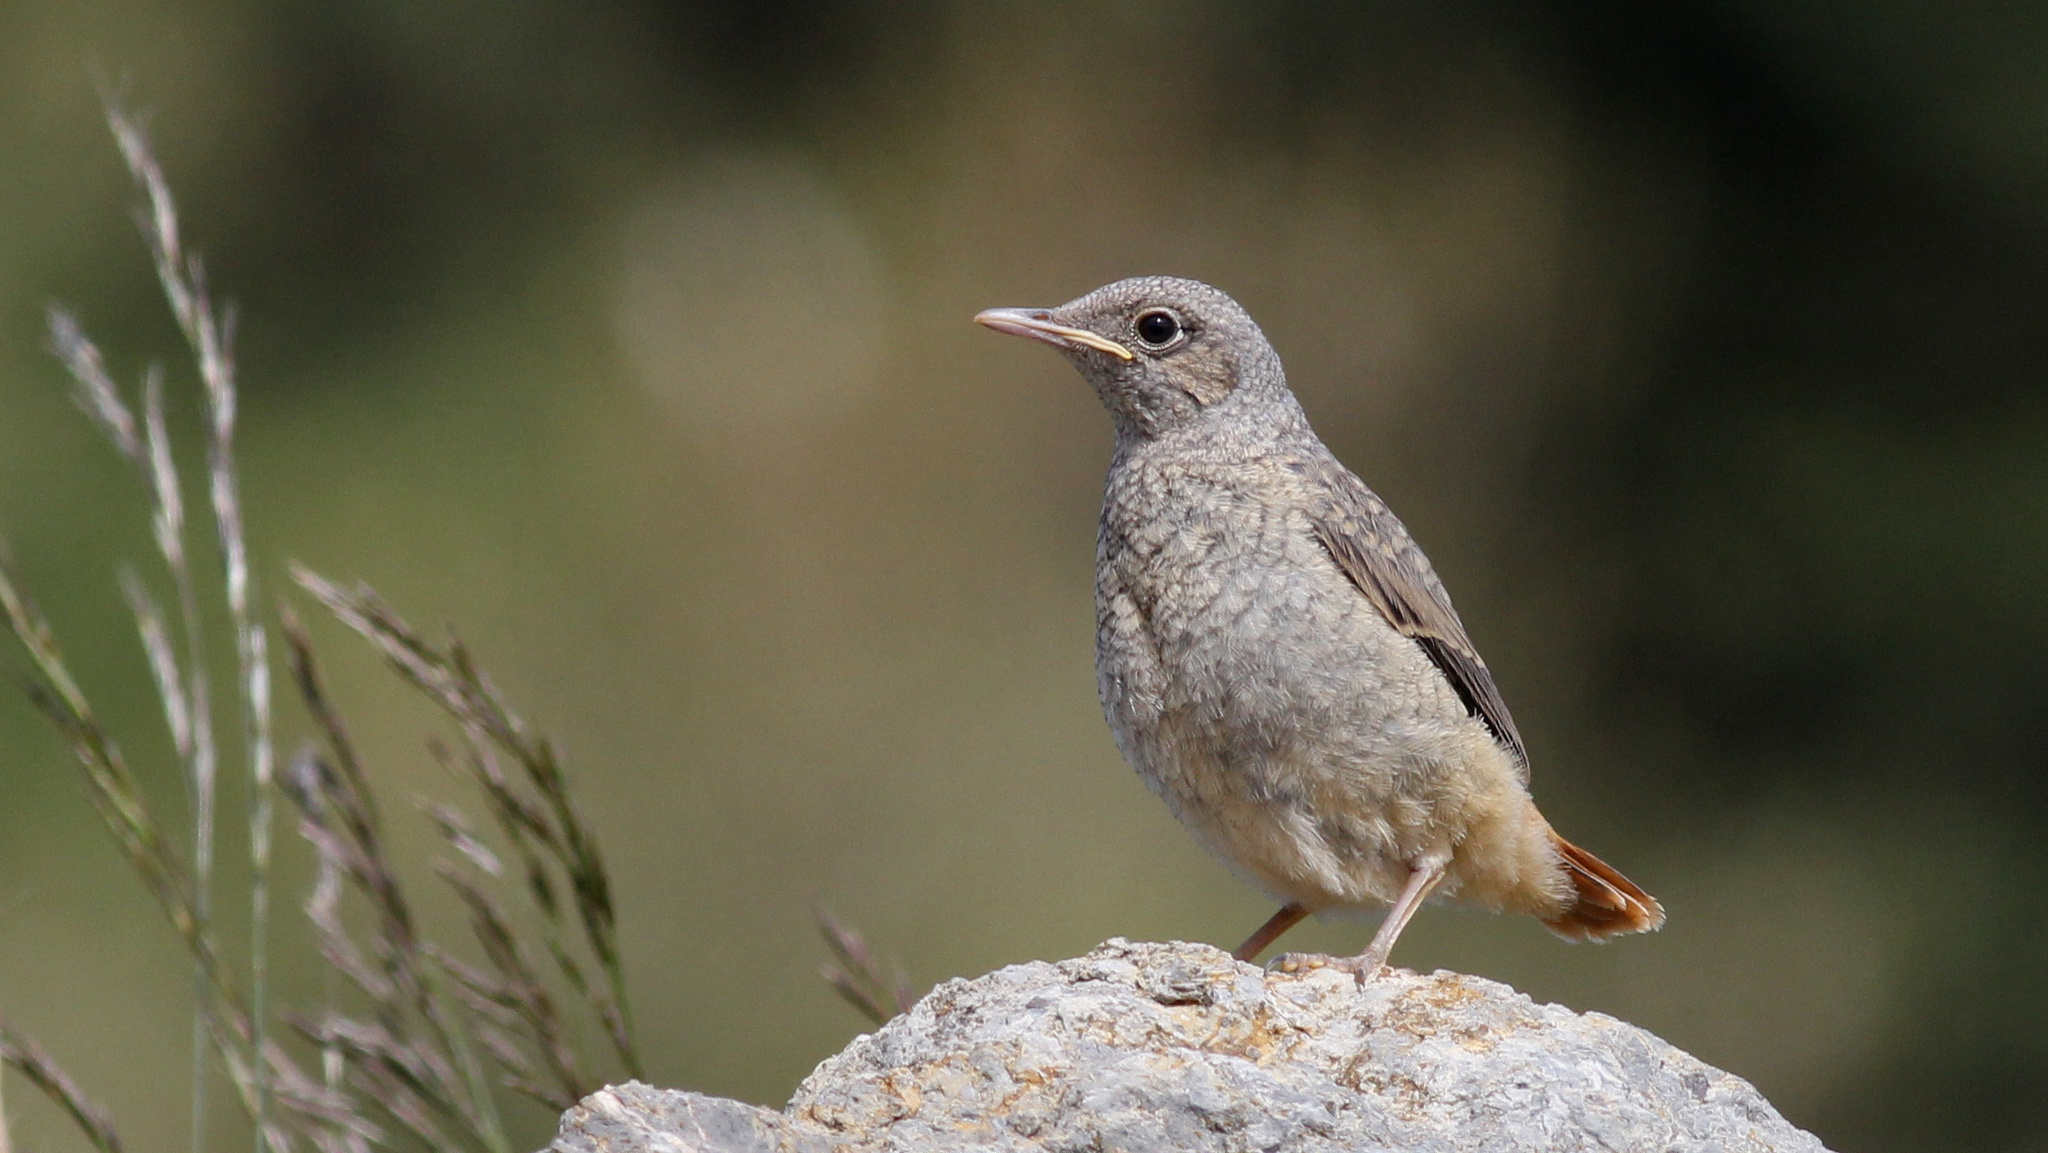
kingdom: Animalia
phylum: Chordata
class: Aves
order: Passeriformes
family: Muscicapidae
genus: Monticola
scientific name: Monticola saxatilis
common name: Rufous-tailed rock thrush
